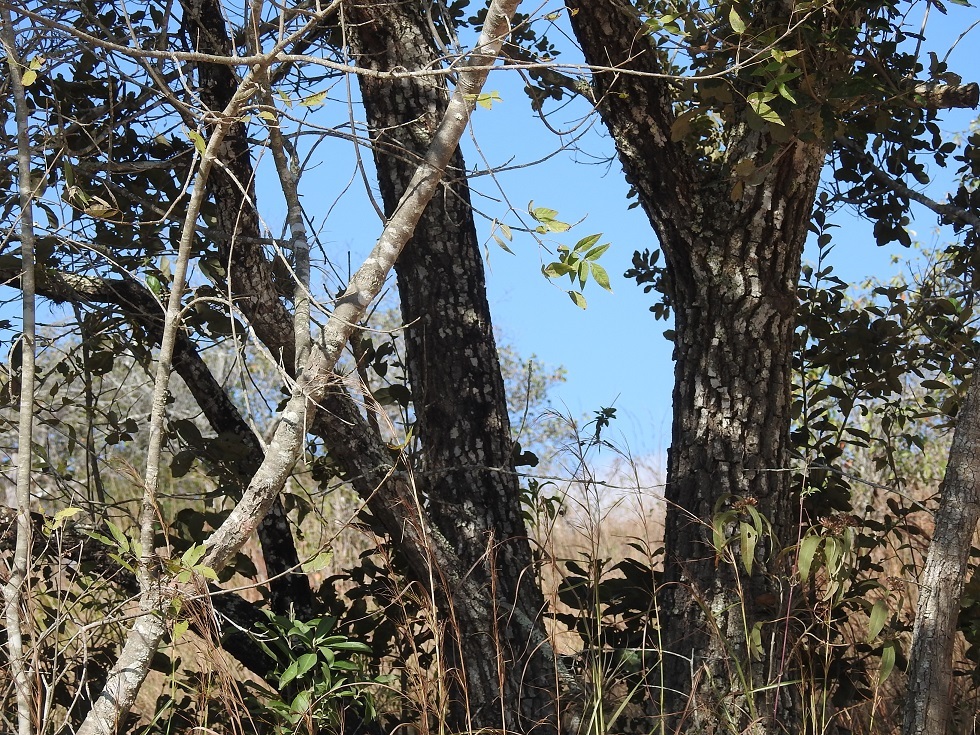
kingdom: Plantae
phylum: Tracheophyta
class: Magnoliopsida
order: Fagales
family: Fagaceae
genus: Quercus
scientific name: Quercus oleoides
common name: White oak
